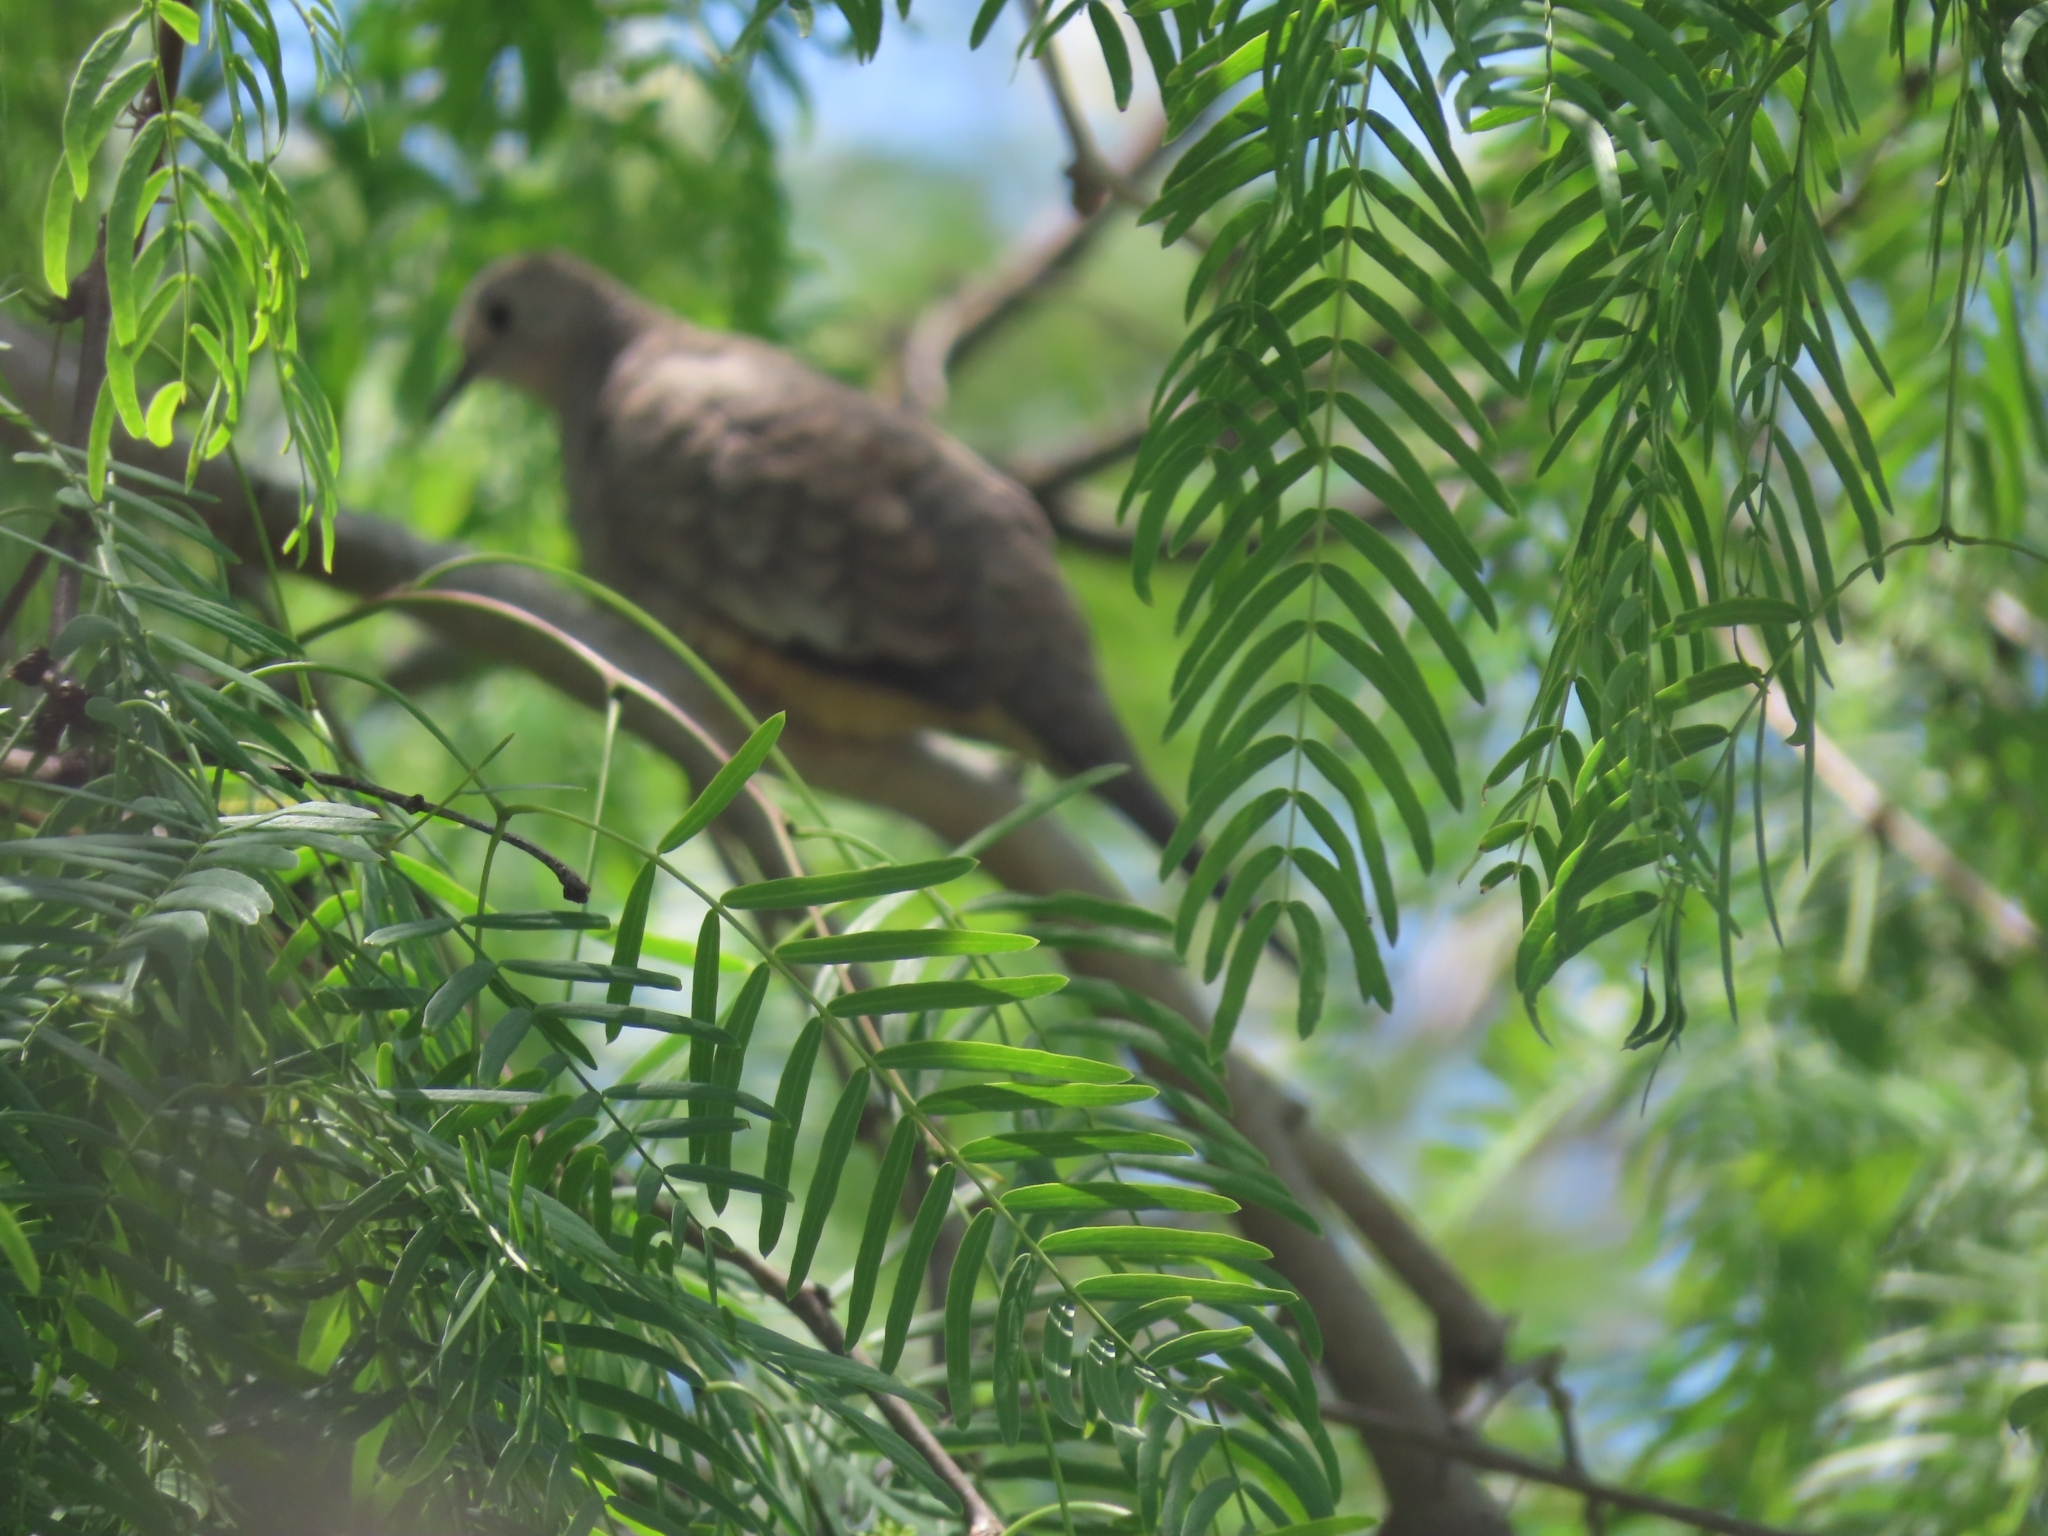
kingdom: Animalia
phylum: Chordata
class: Aves
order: Columbiformes
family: Columbidae
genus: Columbina
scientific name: Columbina inca
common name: Inca dove
